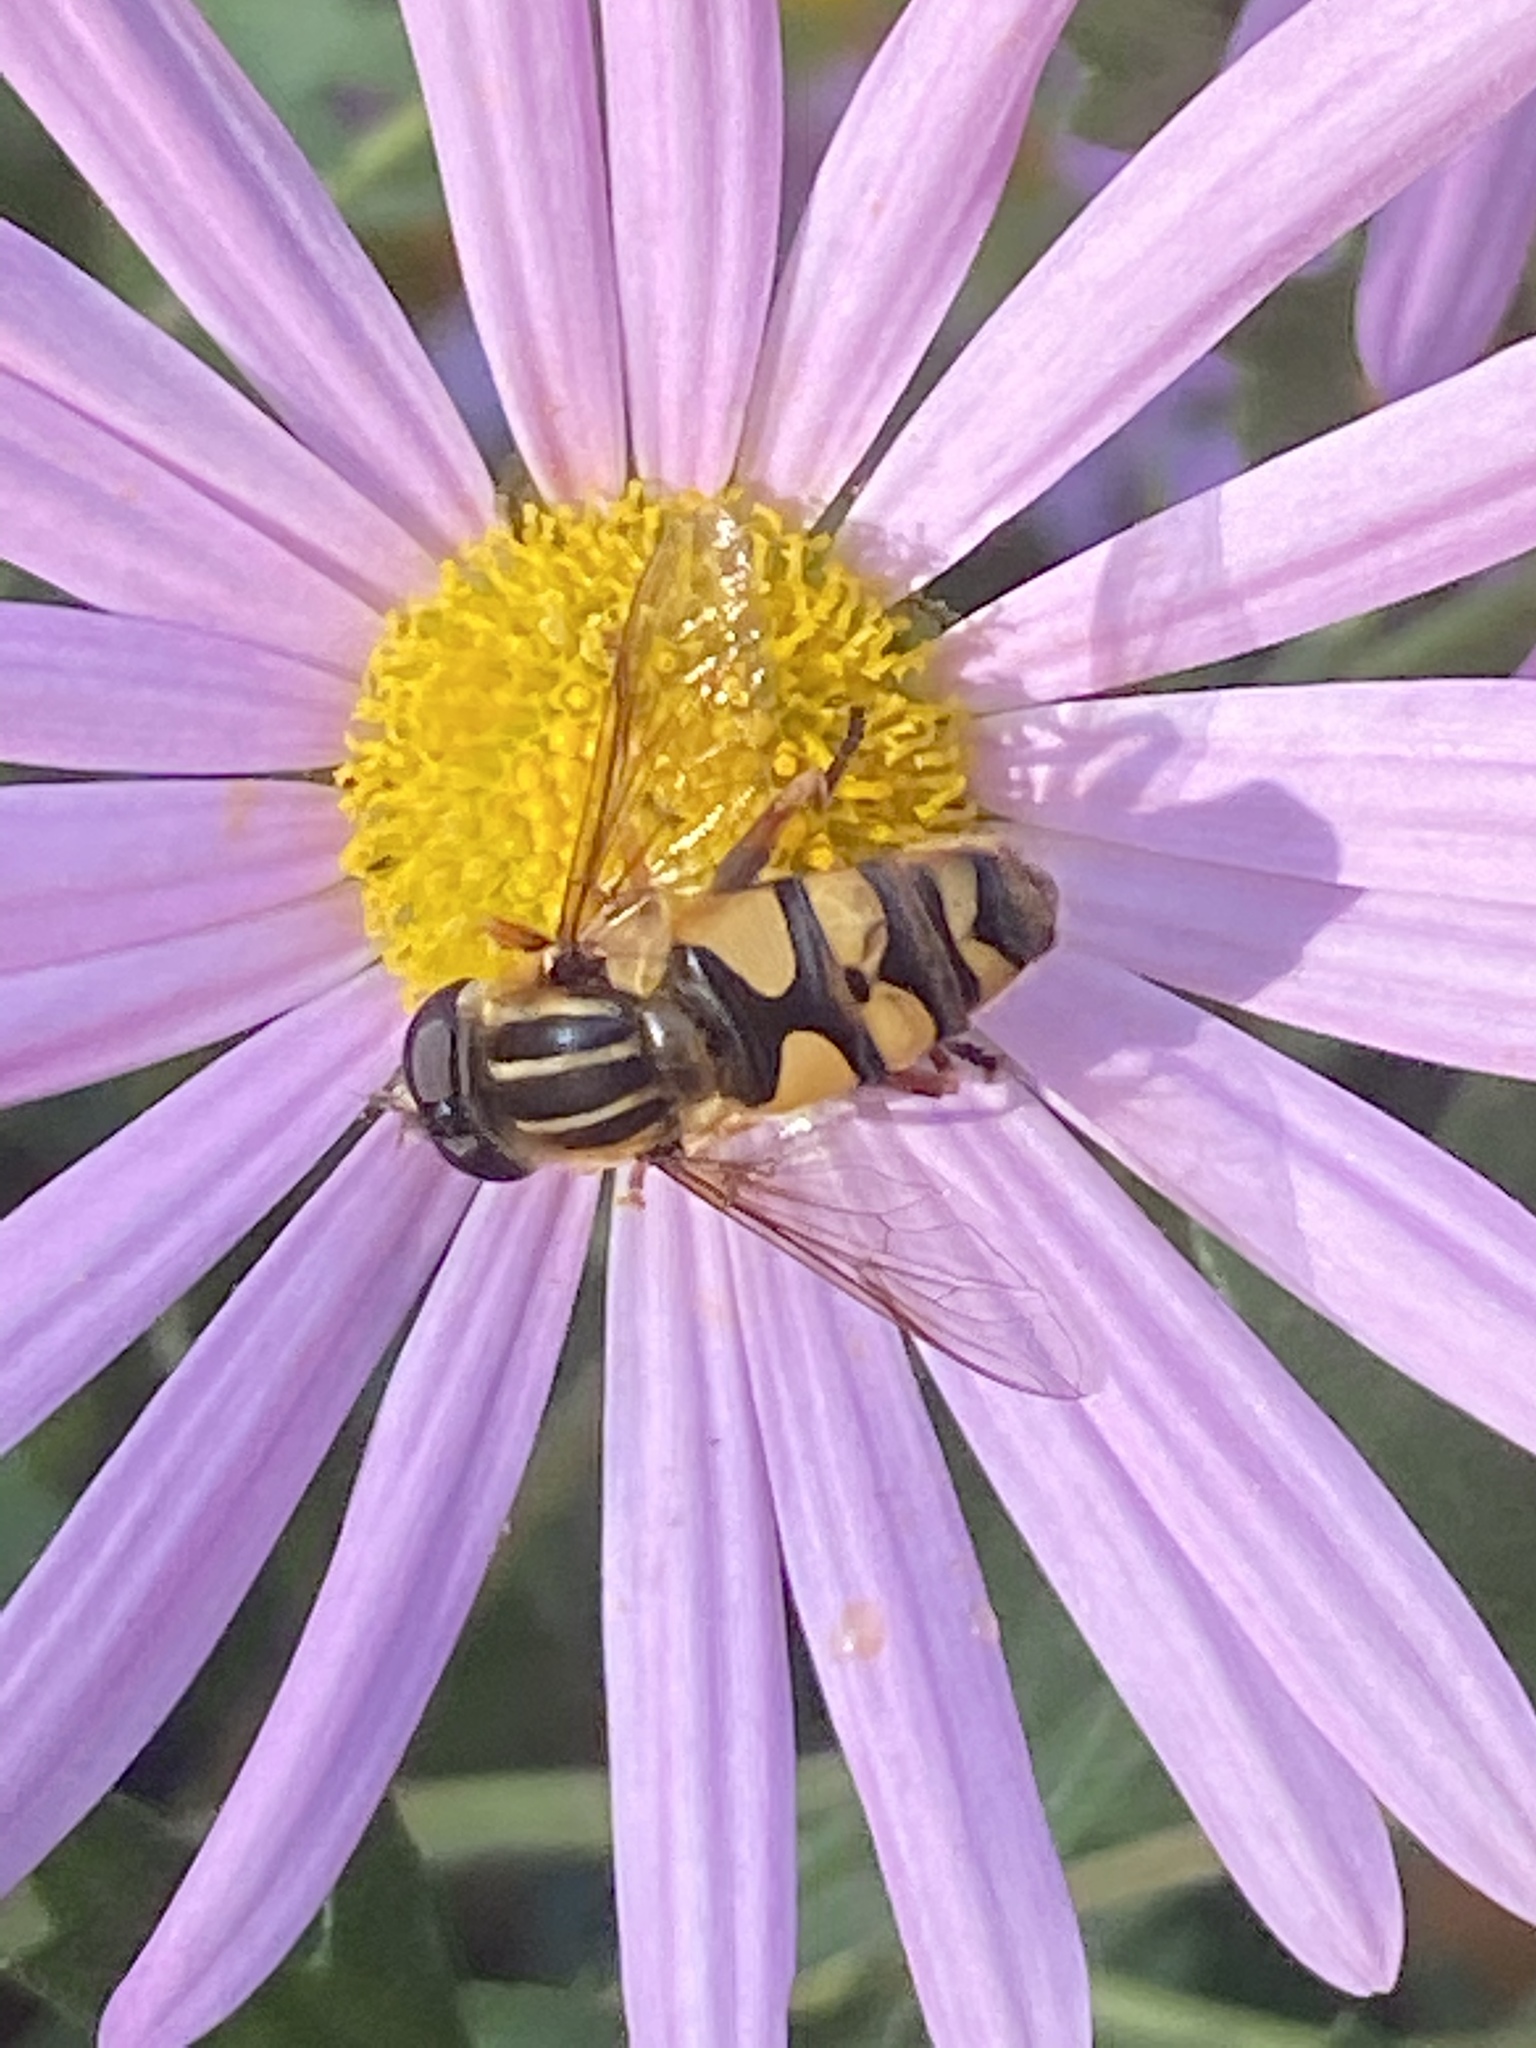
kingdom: Animalia
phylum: Arthropoda
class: Insecta
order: Diptera
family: Syrphidae
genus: Helophilus
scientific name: Helophilus fasciatus
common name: Narrow-headed marsh fly
